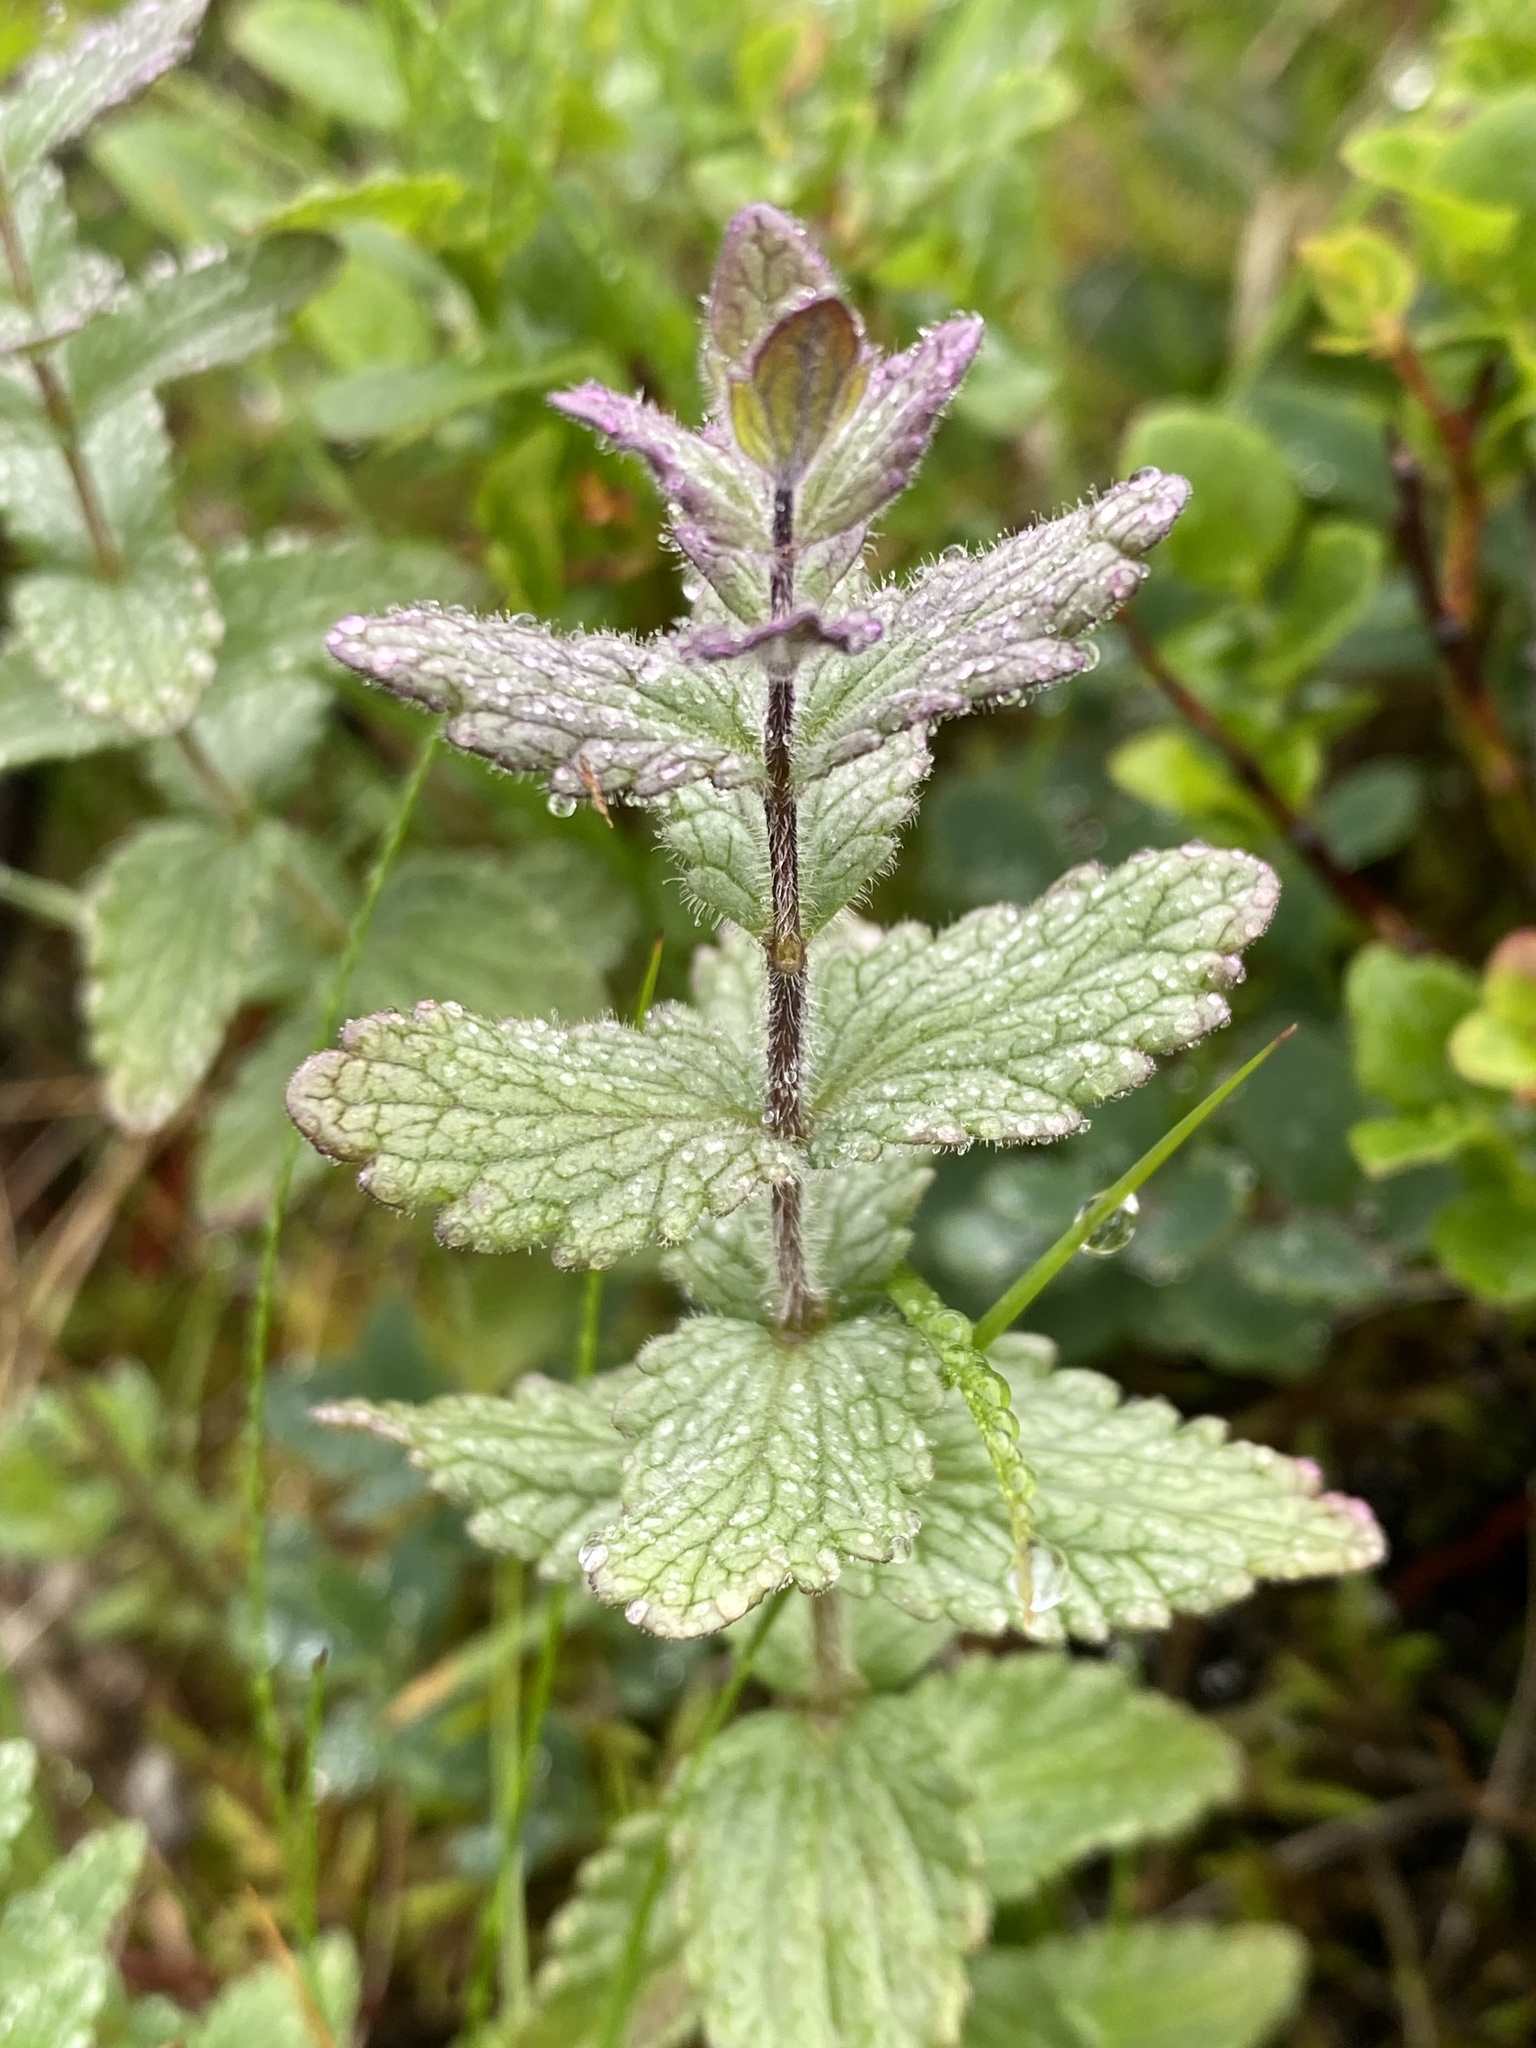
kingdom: Plantae
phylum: Tracheophyta
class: Magnoliopsida
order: Lamiales
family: Orobanchaceae
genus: Bartsia
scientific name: Bartsia alpina
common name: Alpine bartsia
